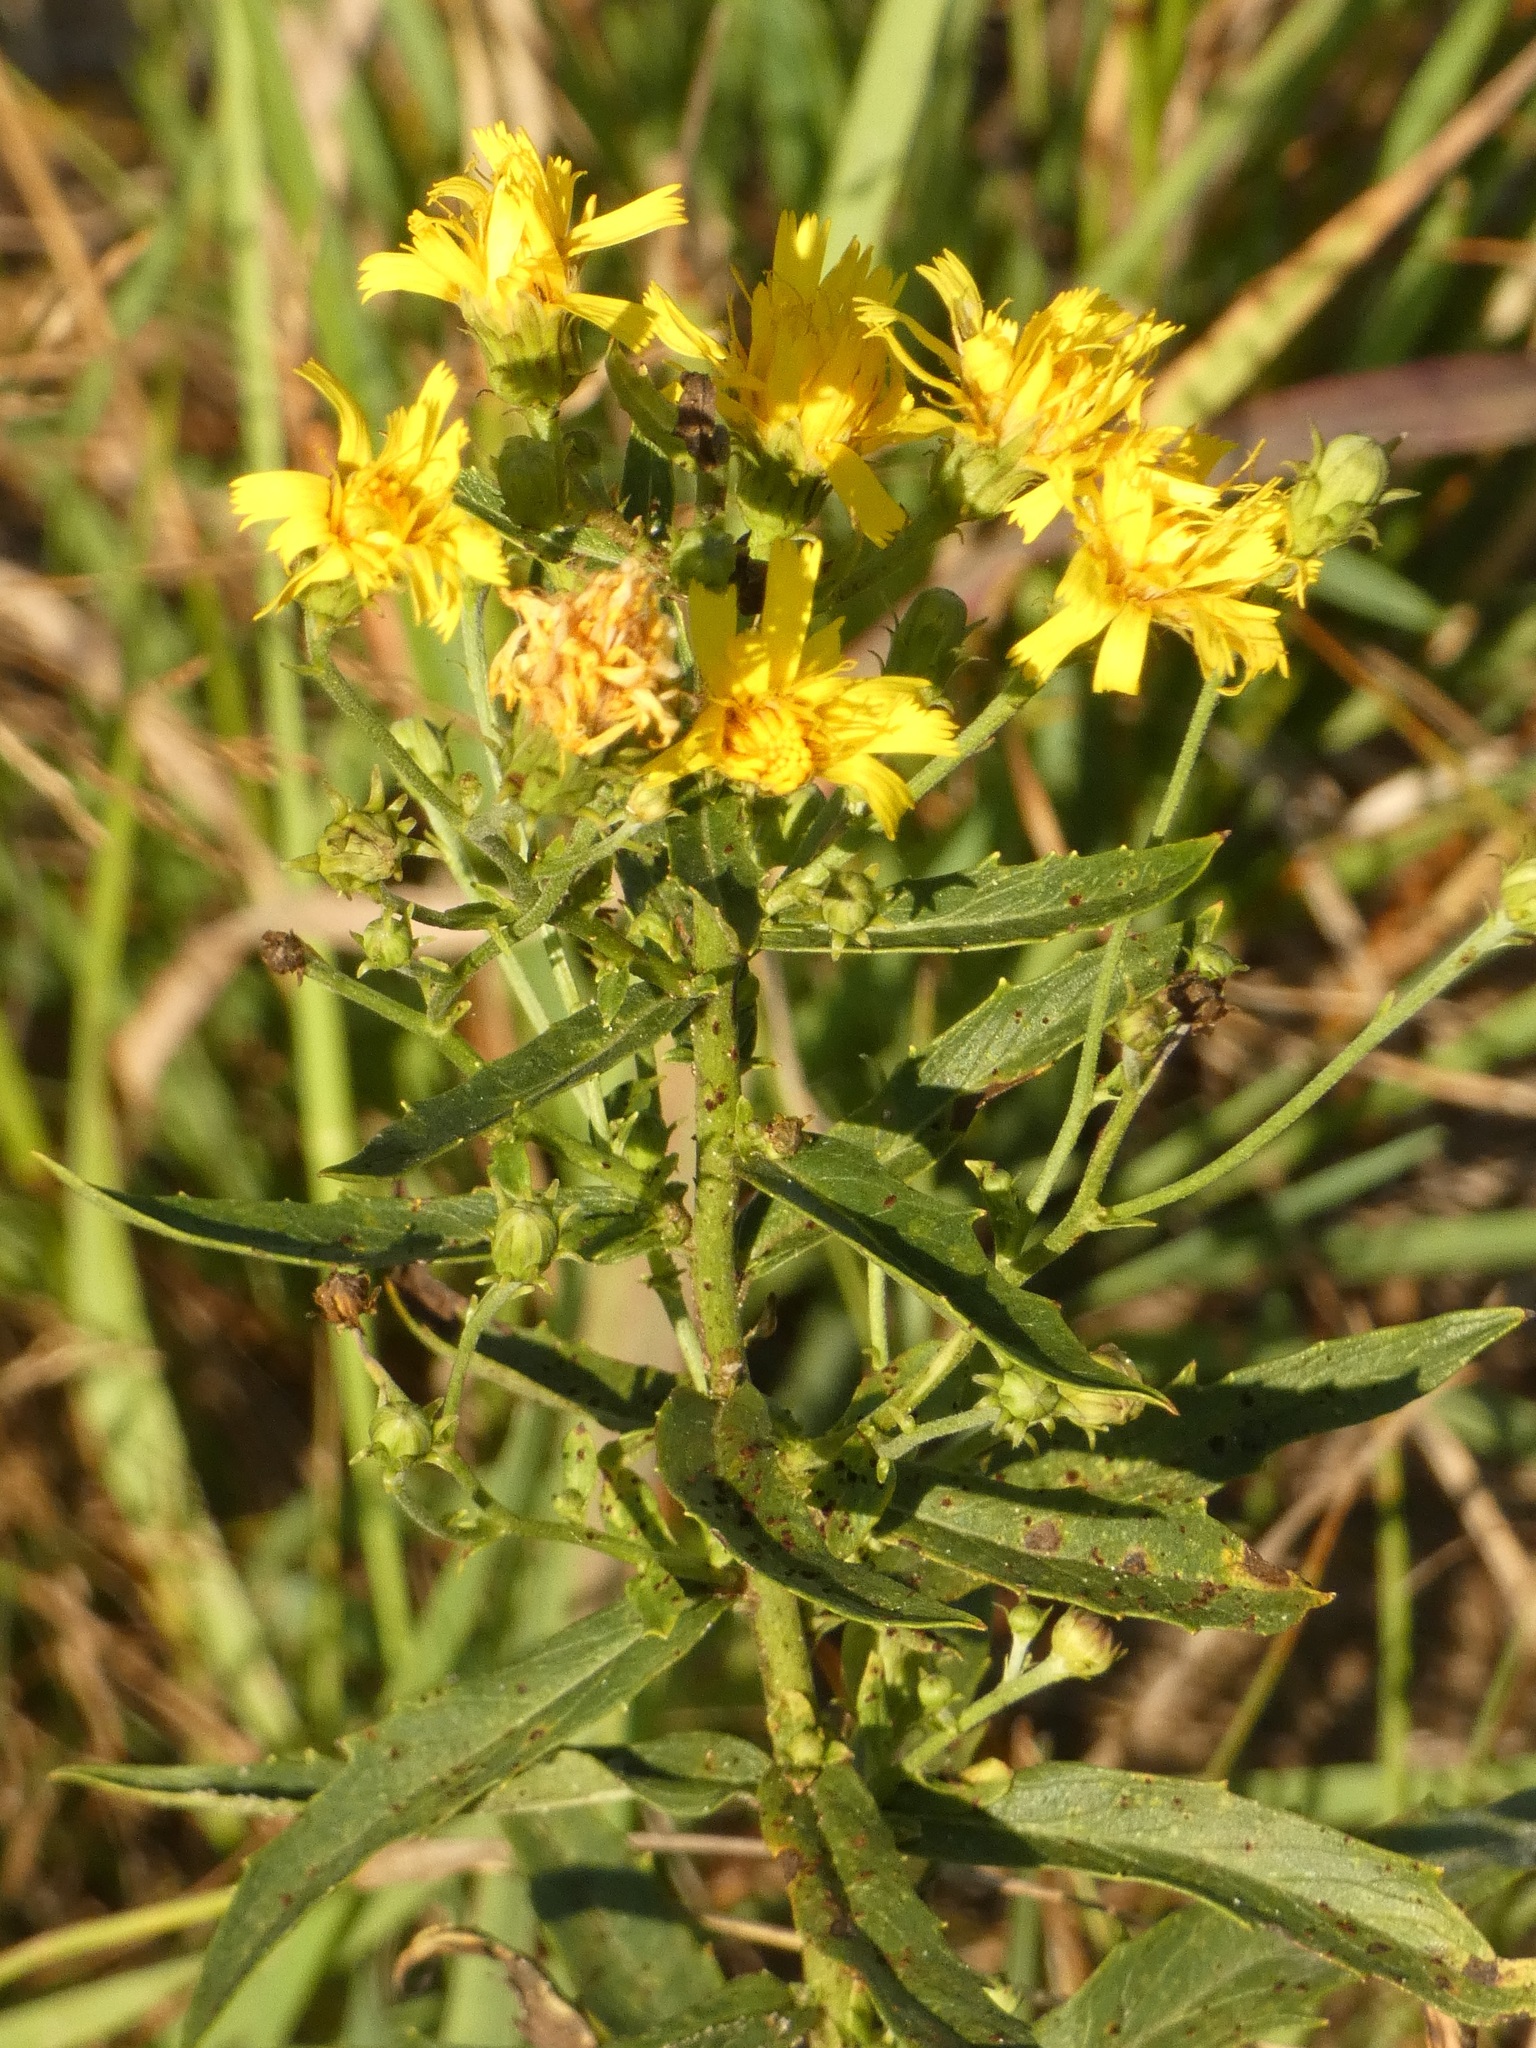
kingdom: Plantae
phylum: Tracheophyta
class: Magnoliopsida
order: Asterales
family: Asteraceae
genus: Hieracium
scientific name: Hieracium umbellatum
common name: Northern hawkweed
